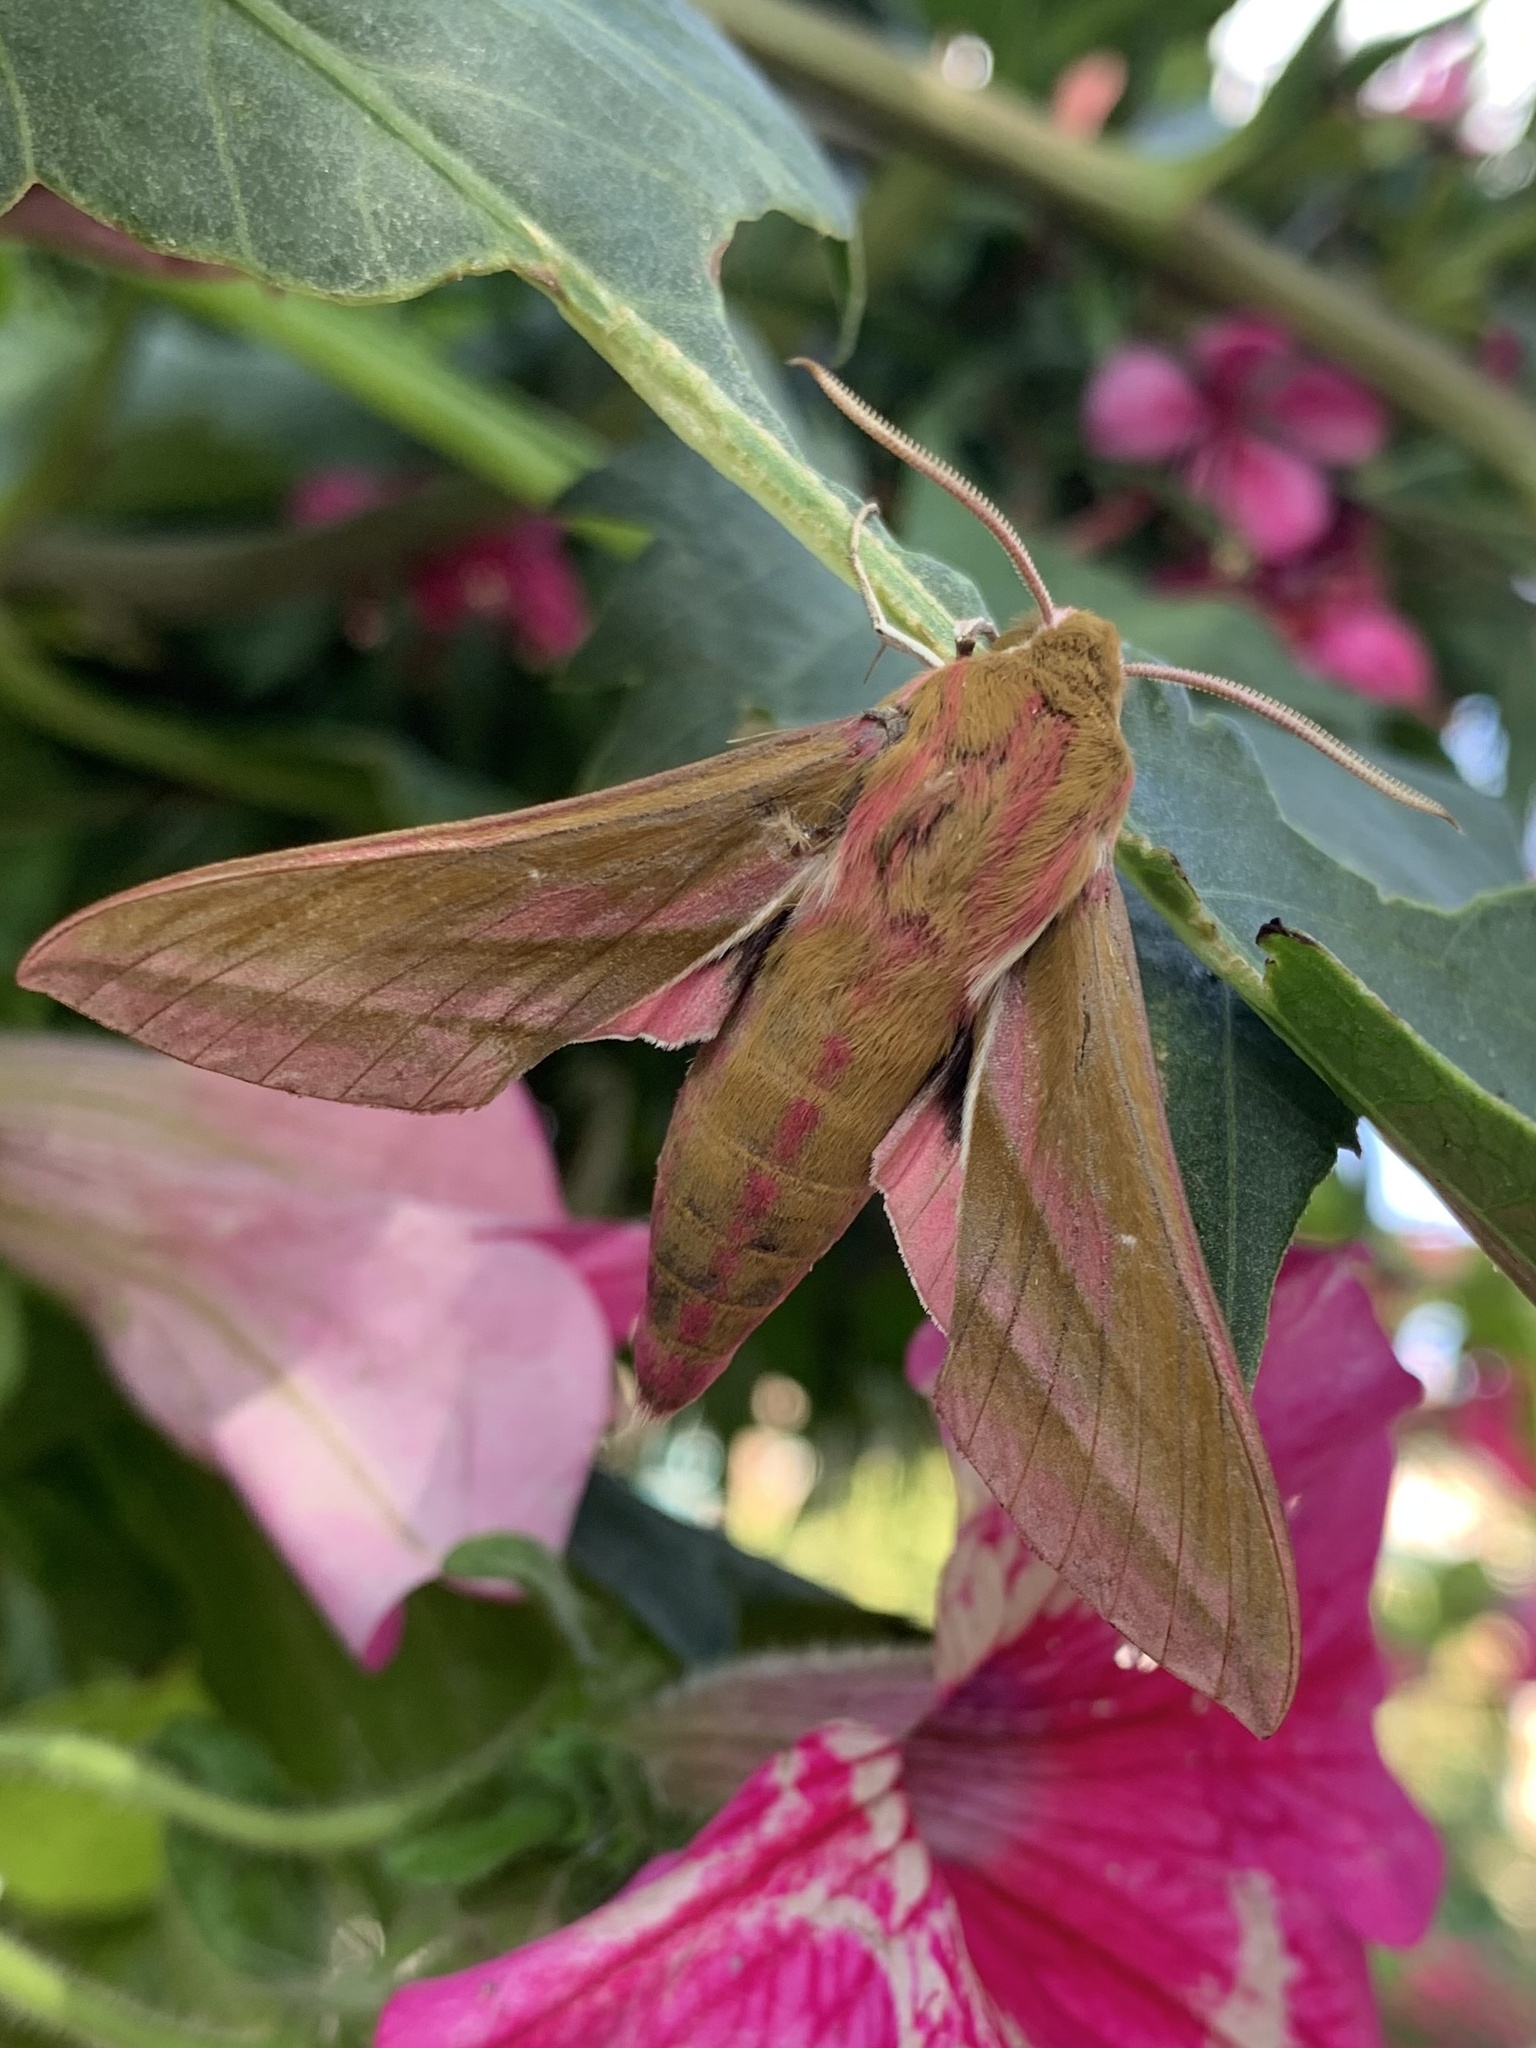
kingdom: Animalia
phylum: Arthropoda
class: Insecta
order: Lepidoptera
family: Sphingidae
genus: Deilephila
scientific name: Deilephila elpenor
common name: Elephant hawk-moth
